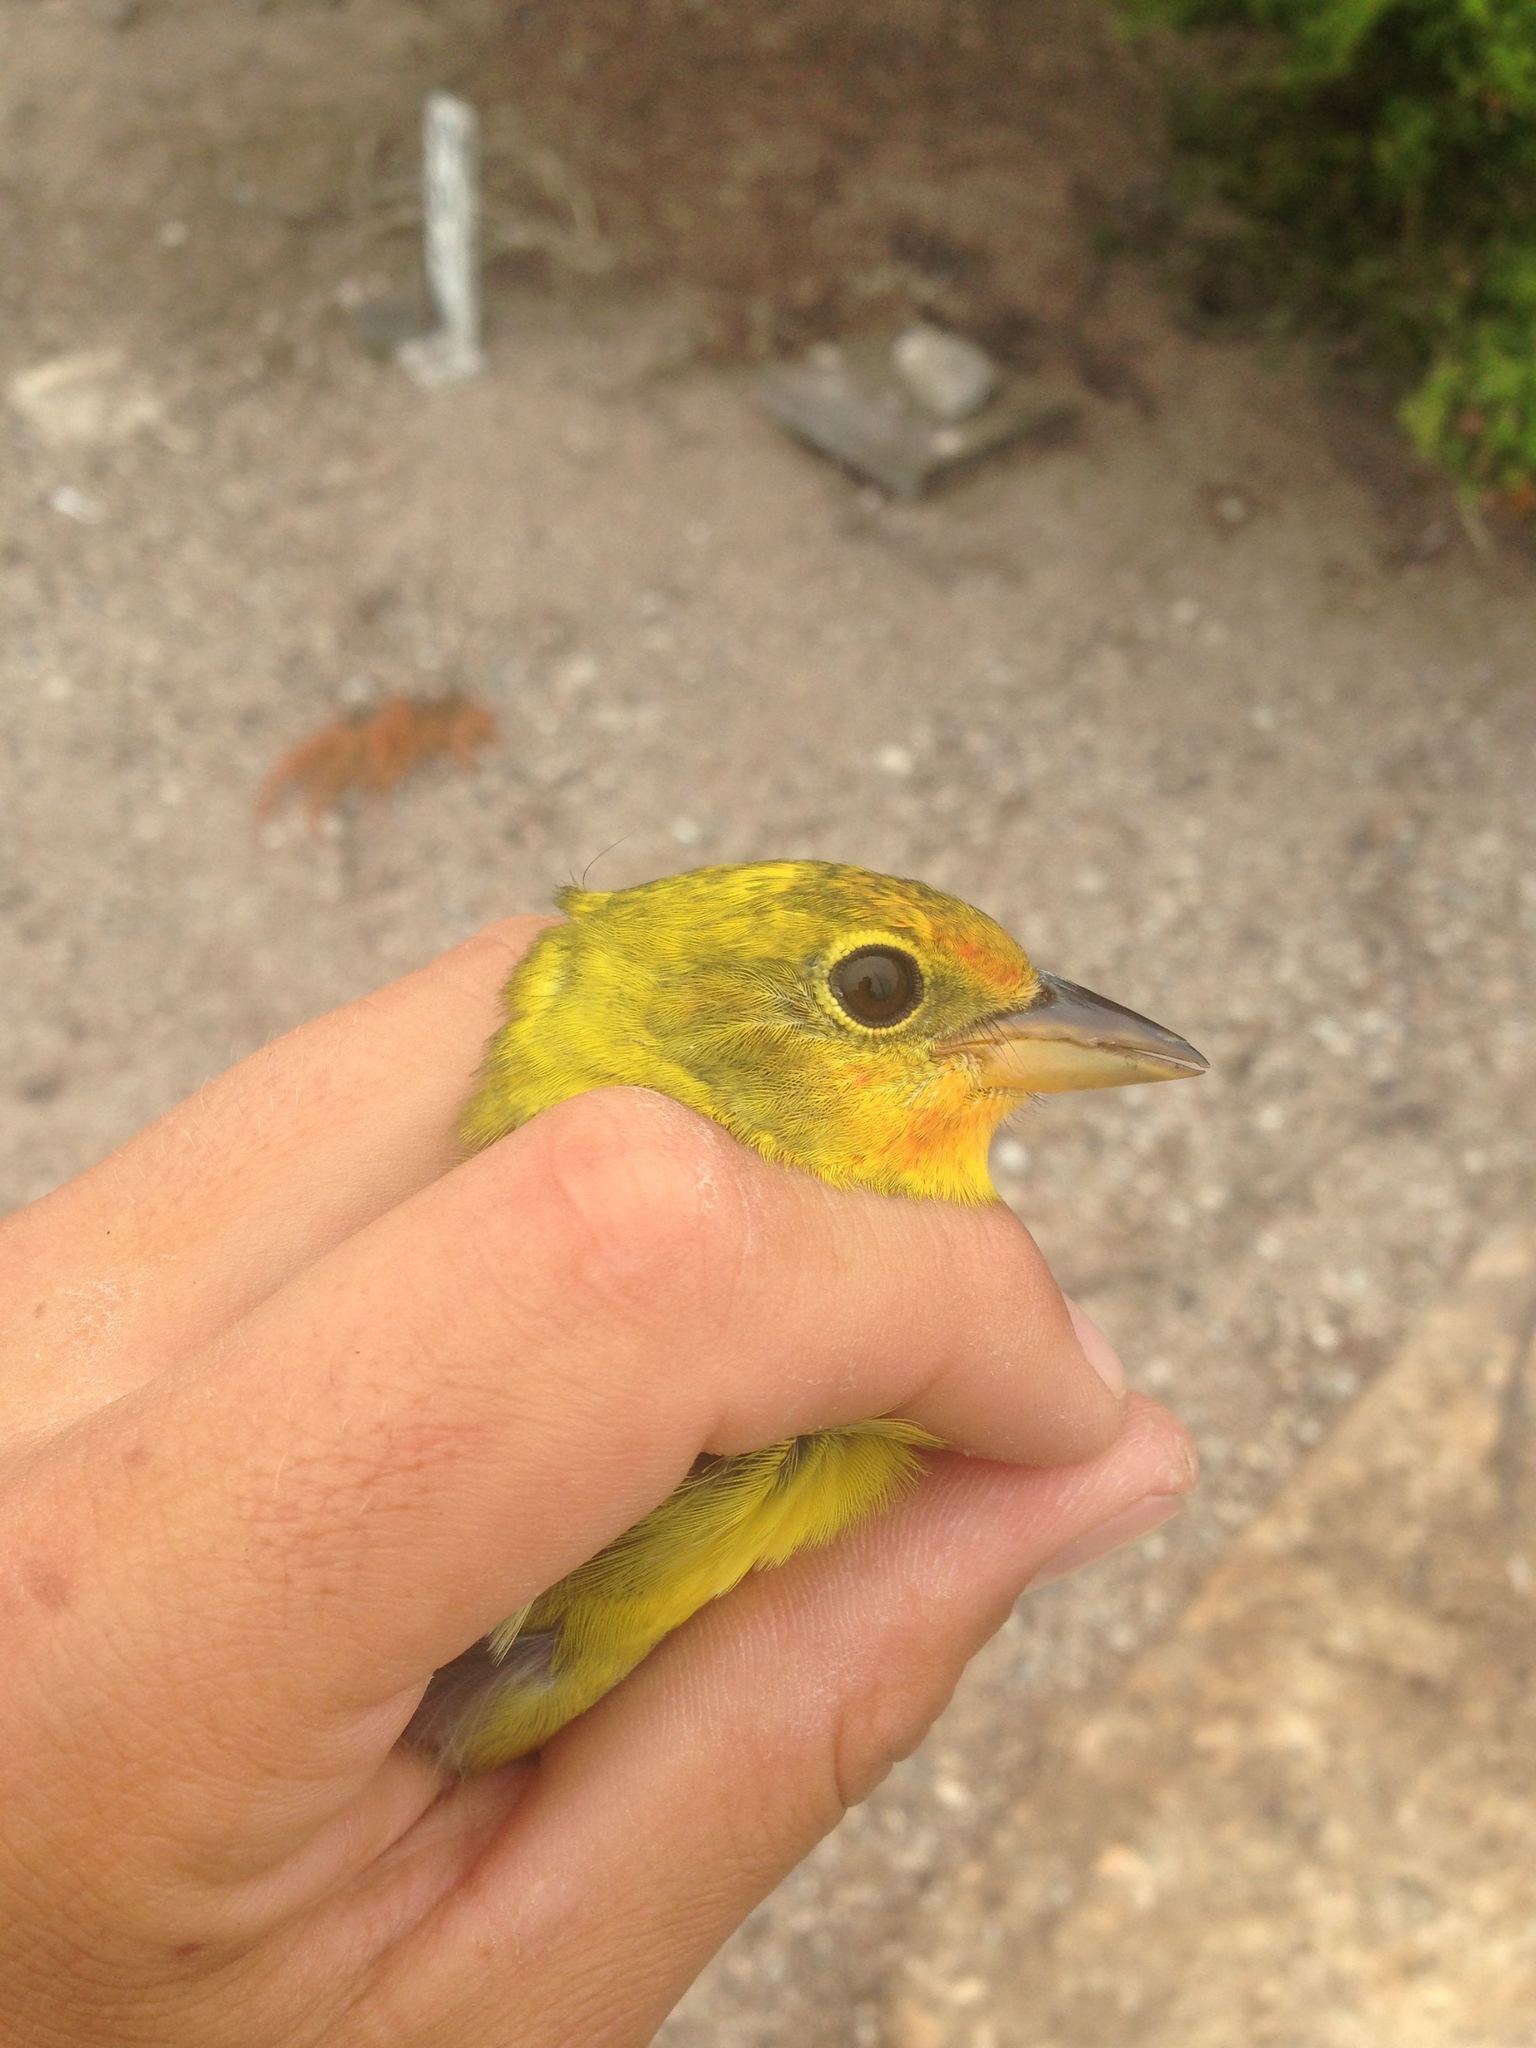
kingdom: Animalia
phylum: Chordata
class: Aves
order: Passeriformes
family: Cardinalidae
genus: Piranga
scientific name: Piranga ludoviciana
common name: Western tanager
